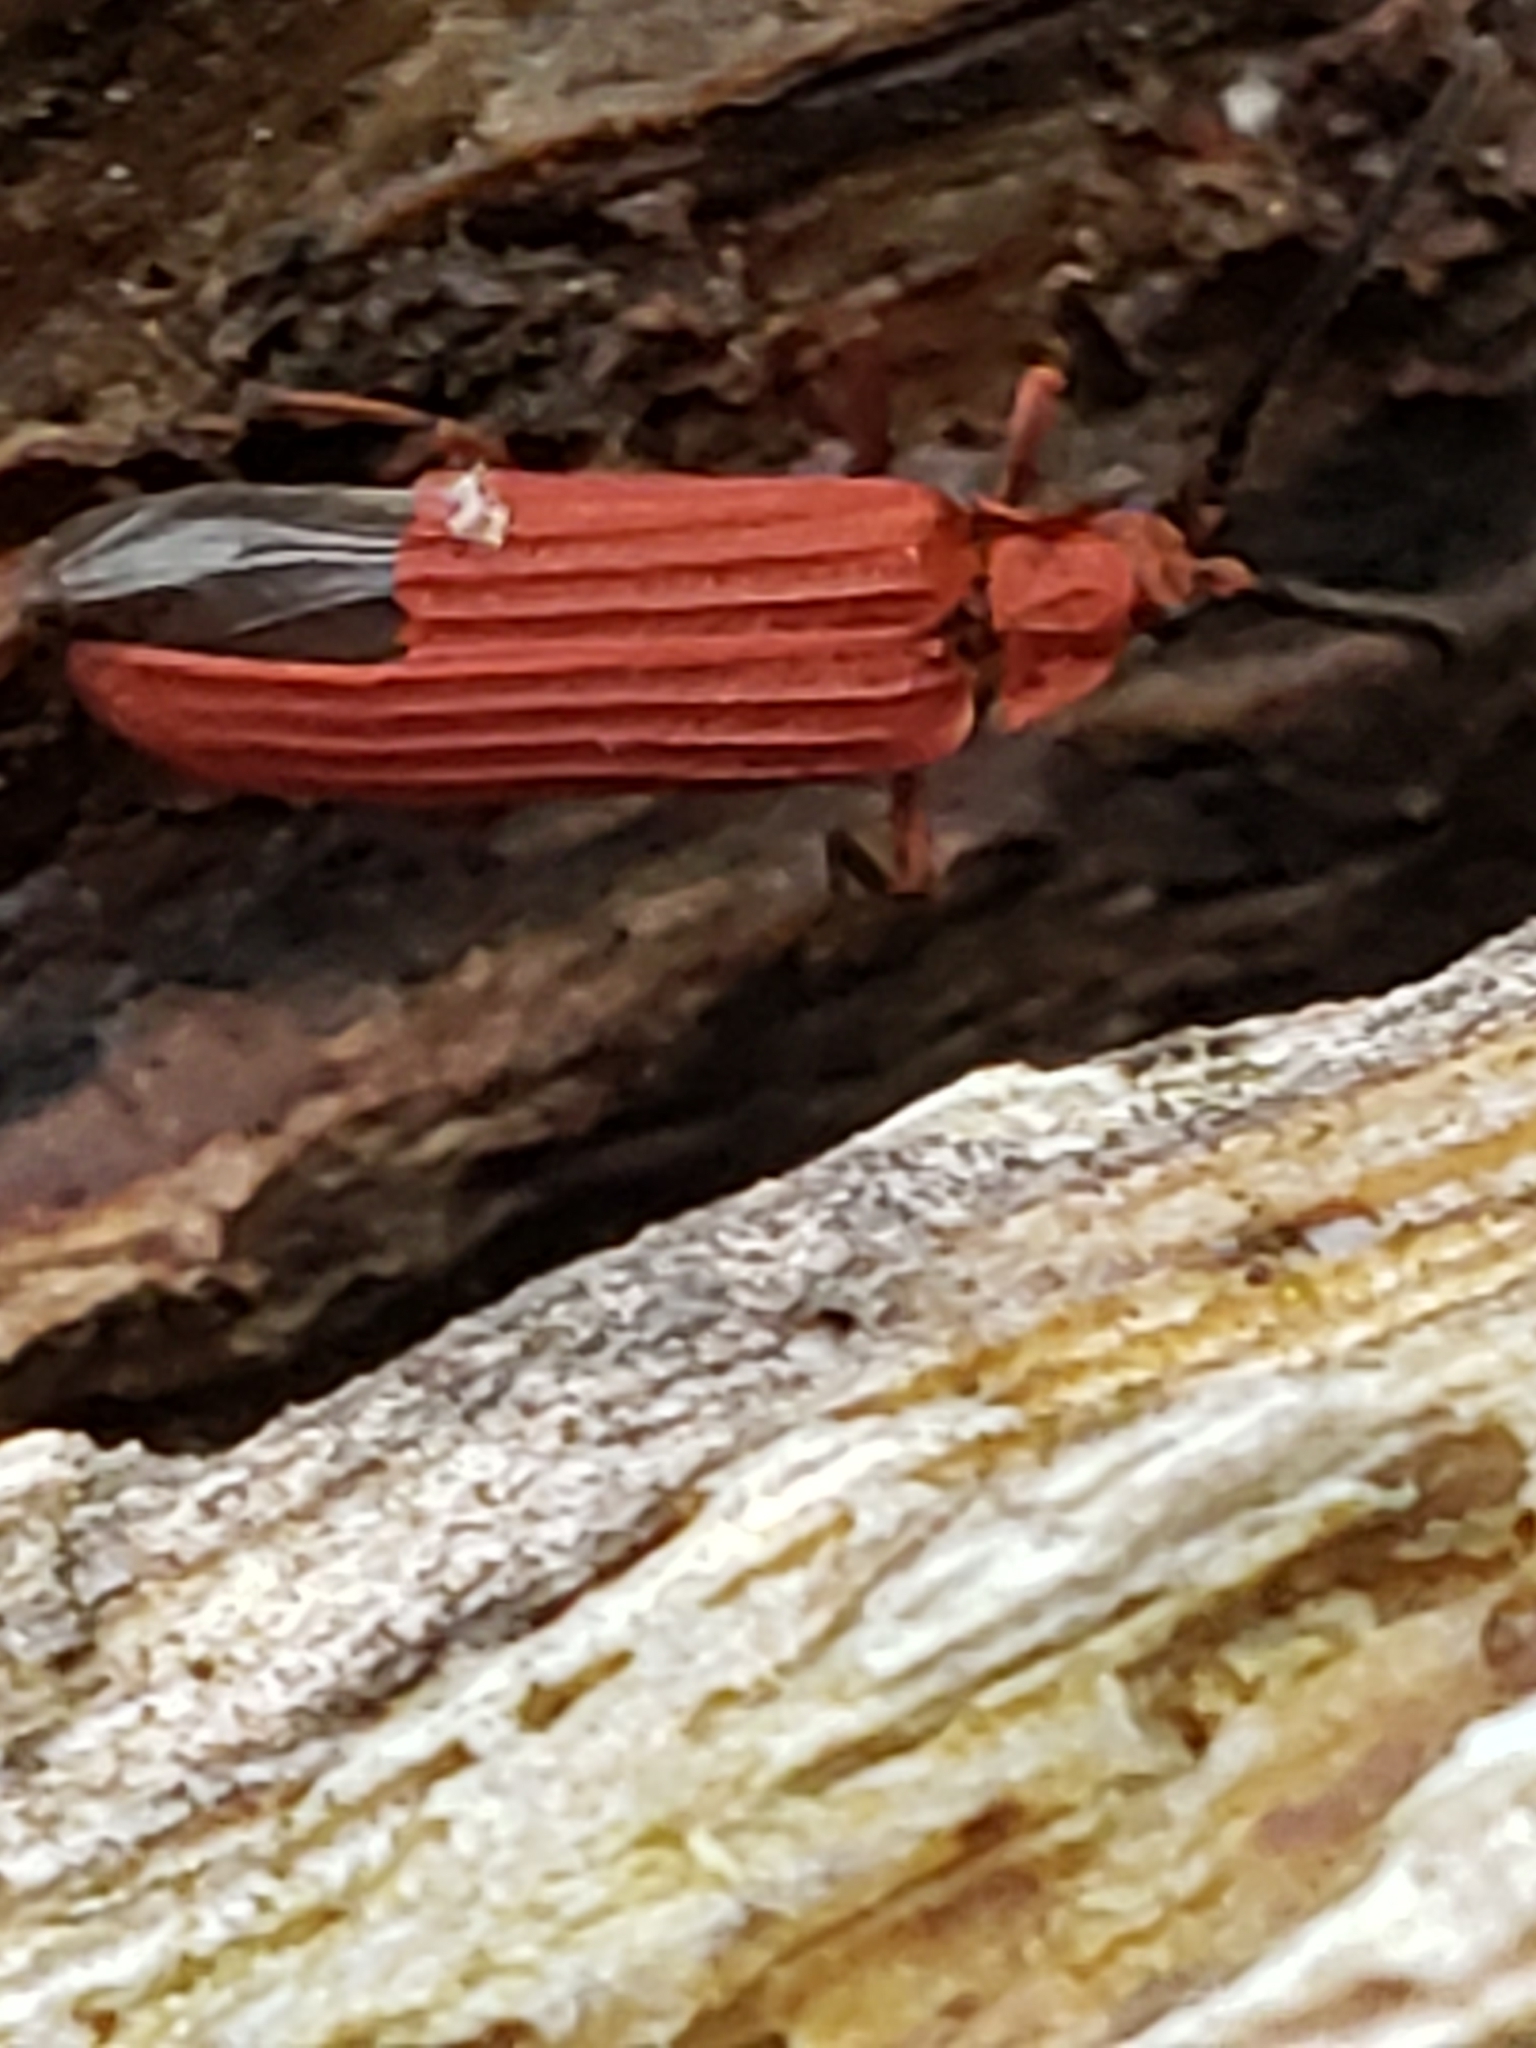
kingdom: Animalia
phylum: Arthropoda
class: Insecta
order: Coleoptera
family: Lycidae
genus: Punicealis
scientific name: Punicealis
